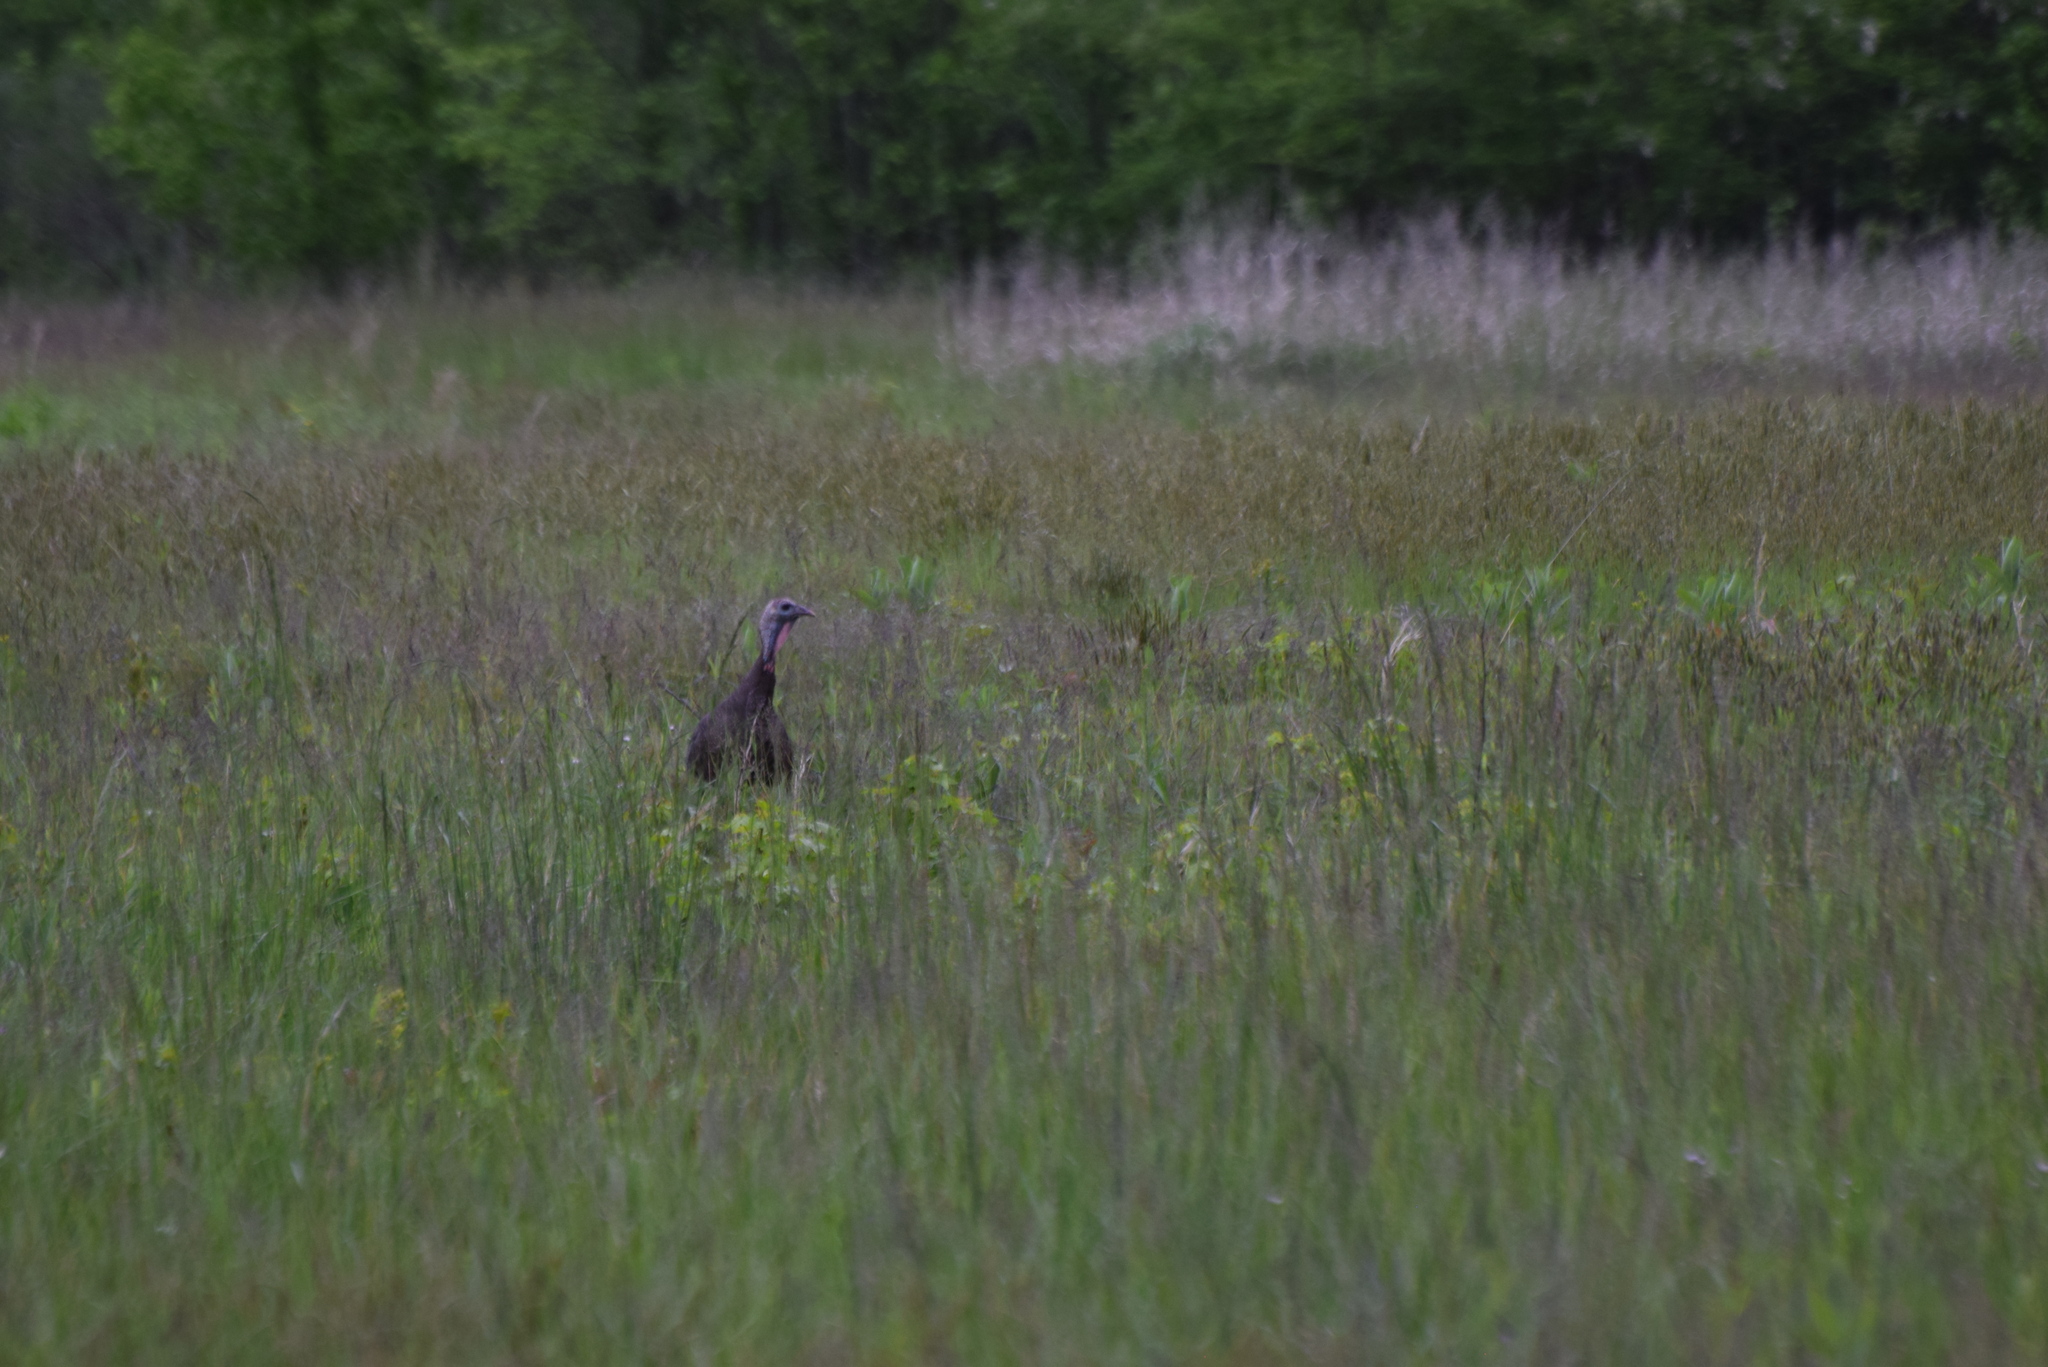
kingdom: Animalia
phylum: Chordata
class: Aves
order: Galliformes
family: Phasianidae
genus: Meleagris
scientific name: Meleagris gallopavo
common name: Wild turkey
